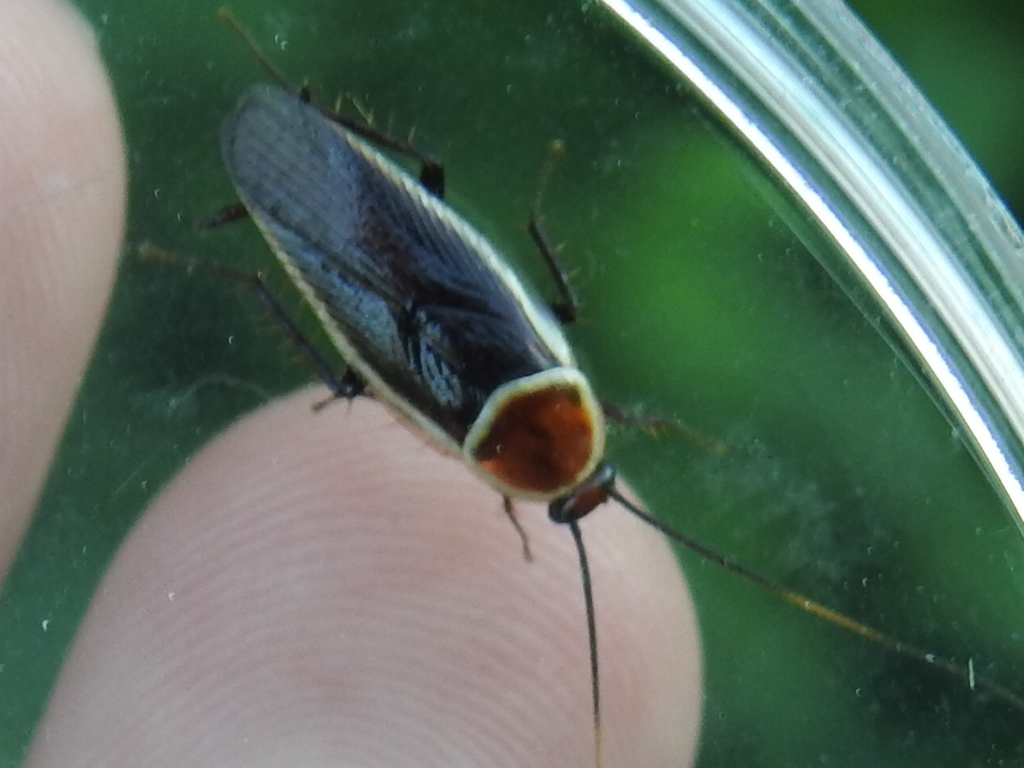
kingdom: Animalia
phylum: Arthropoda
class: Insecta
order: Blattodea
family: Ectobiidae
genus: Pseudomops
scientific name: Pseudomops septentrionalis
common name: Pale-bordered field cockroach
